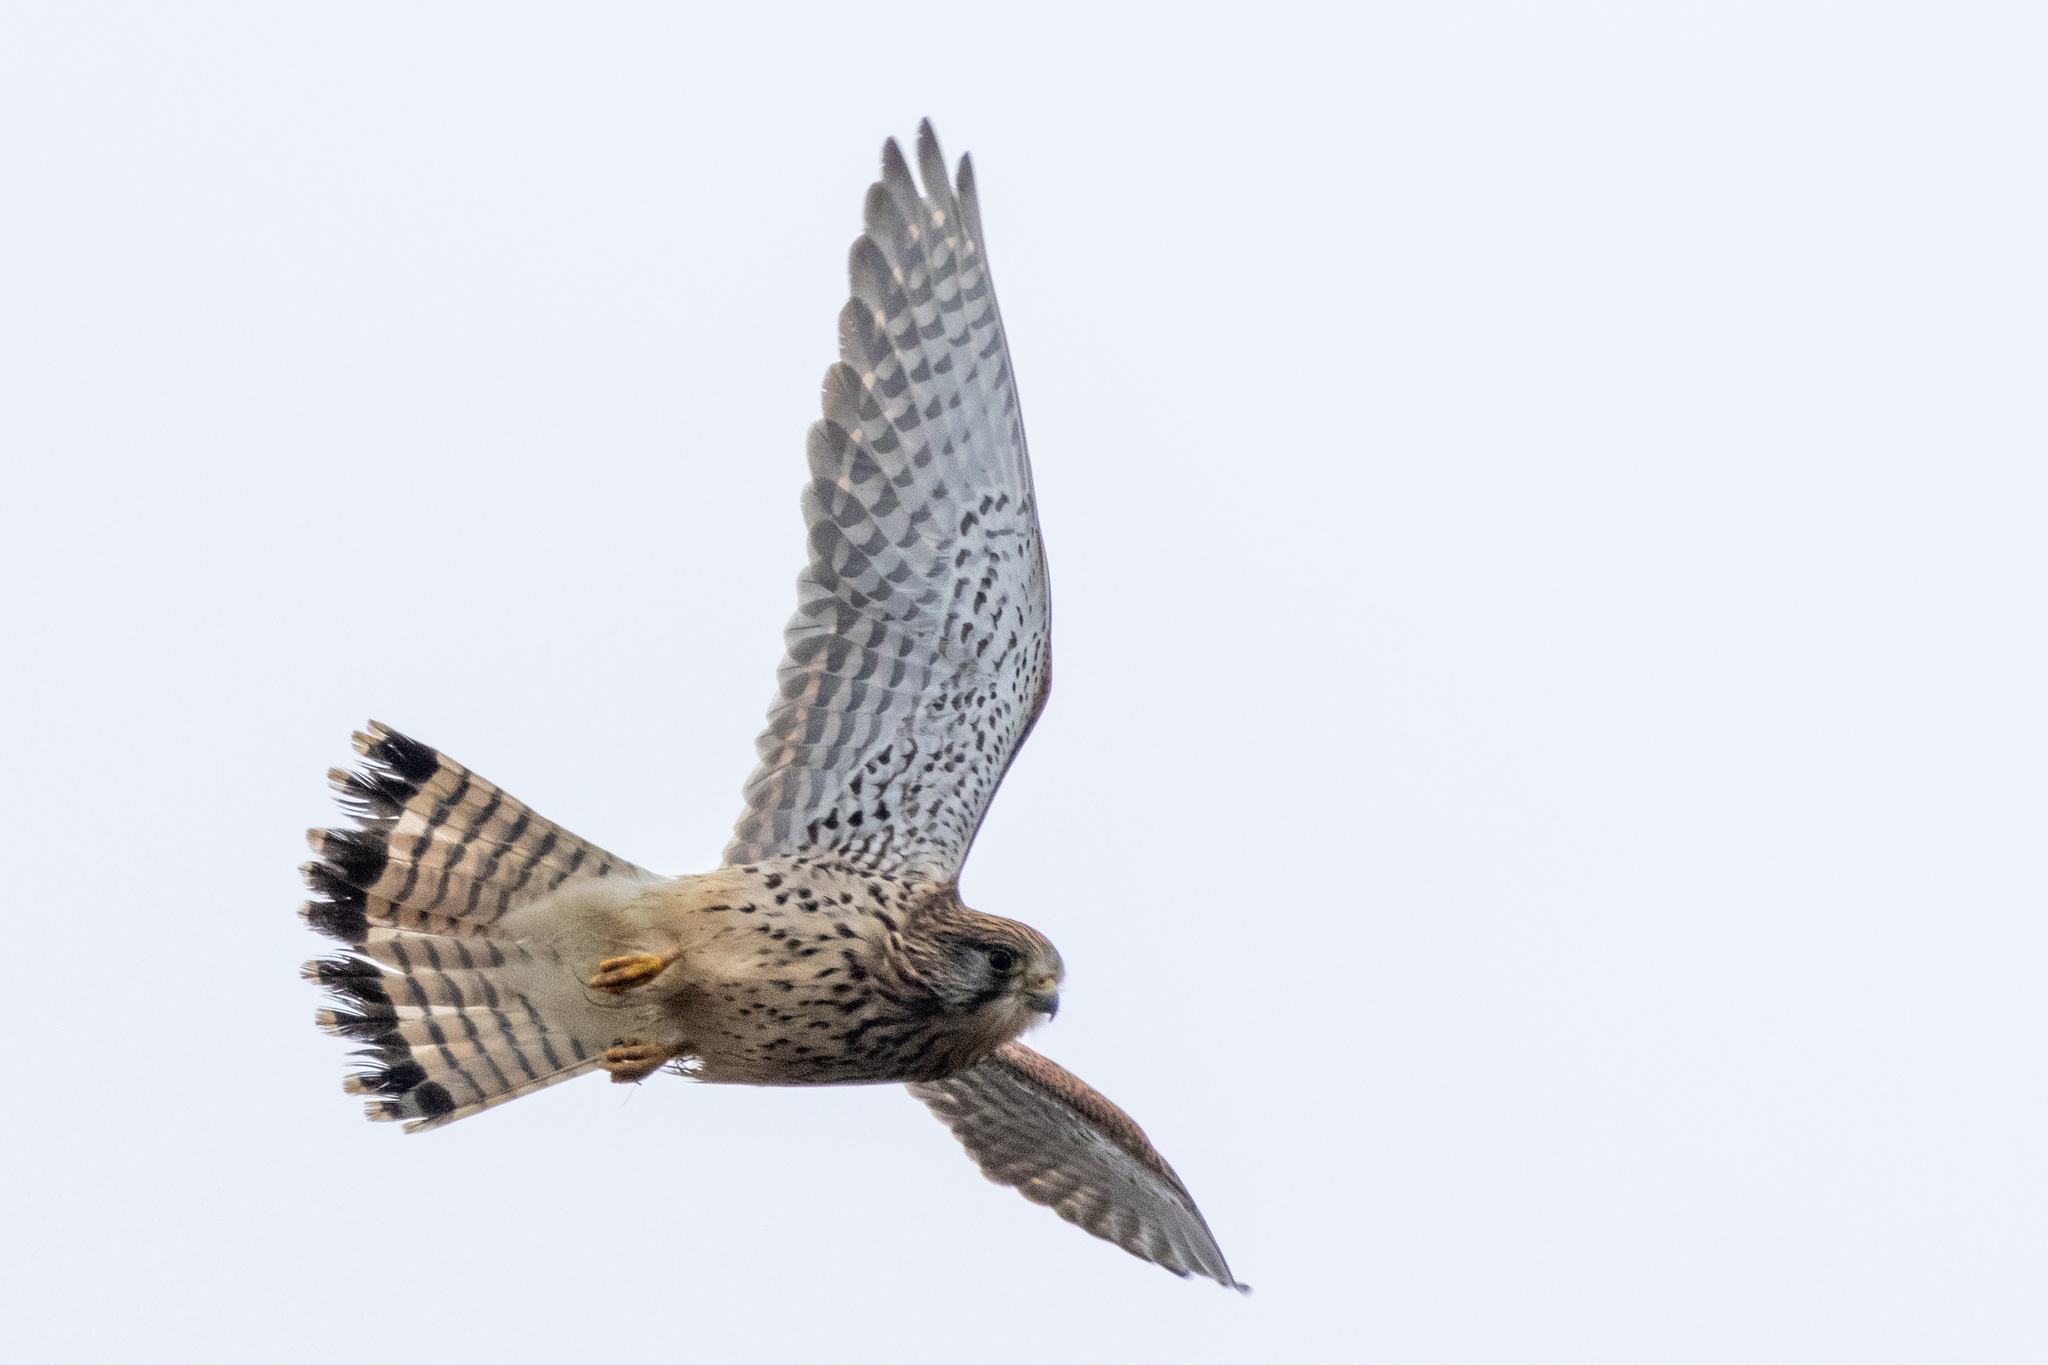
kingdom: Animalia
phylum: Chordata
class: Aves
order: Falconiformes
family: Falconidae
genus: Falco
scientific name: Falco tinnunculus
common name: Common kestrel
